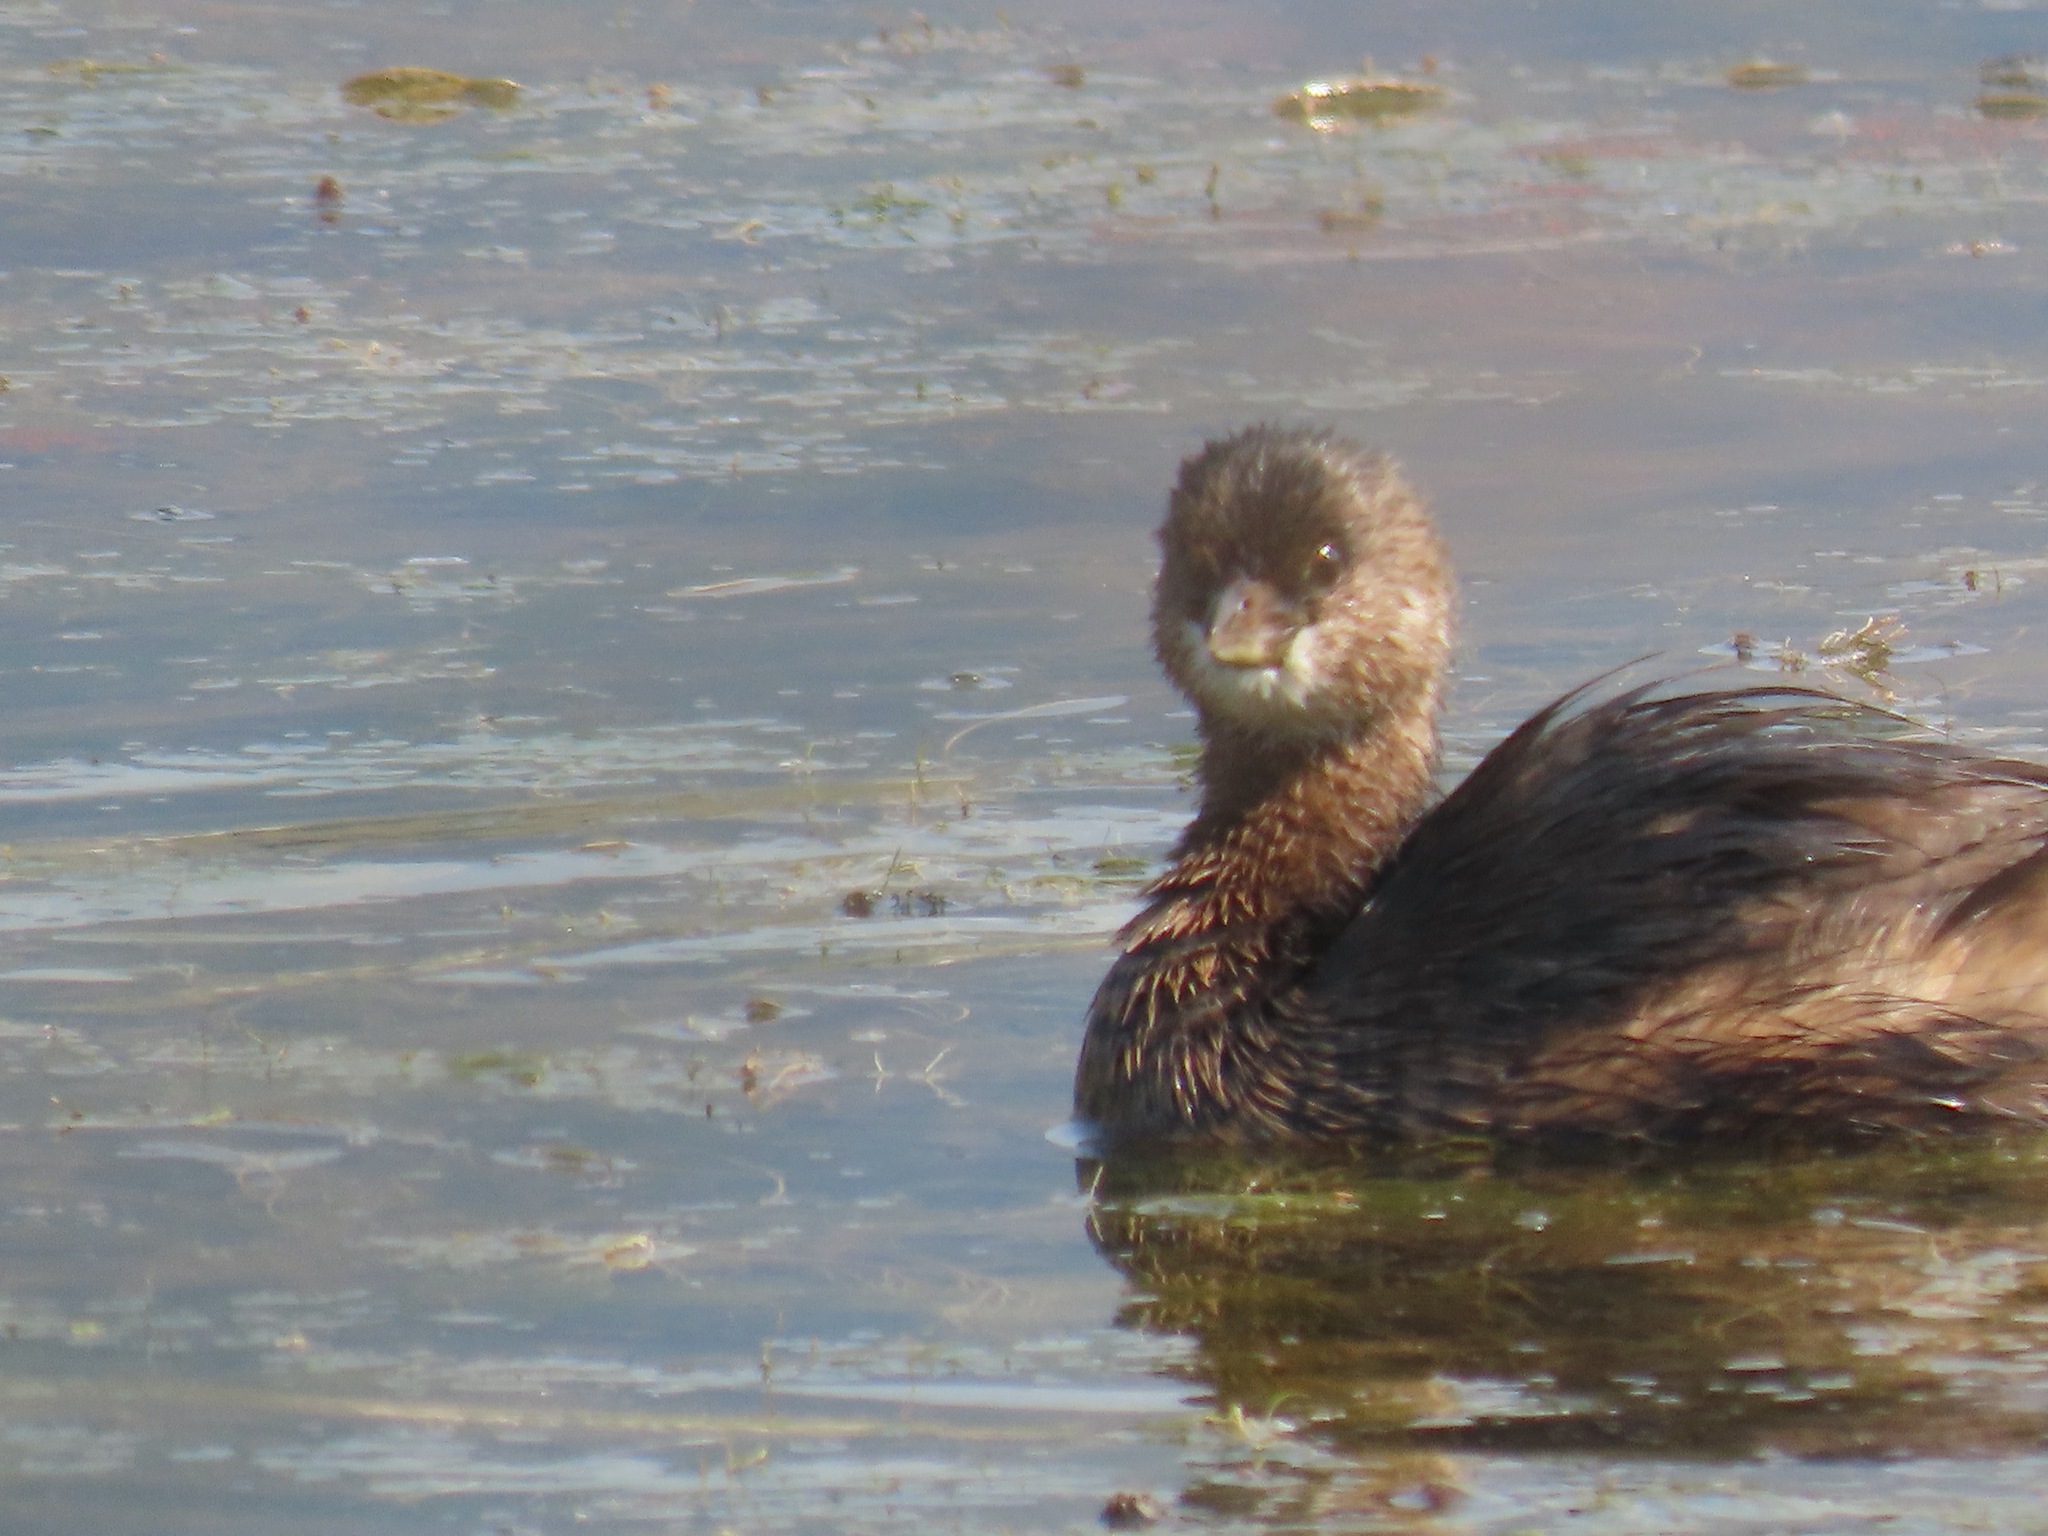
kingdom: Animalia
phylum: Chordata
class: Aves
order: Podicipediformes
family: Podicipedidae
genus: Podilymbus
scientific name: Podilymbus podiceps
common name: Pied-billed grebe
